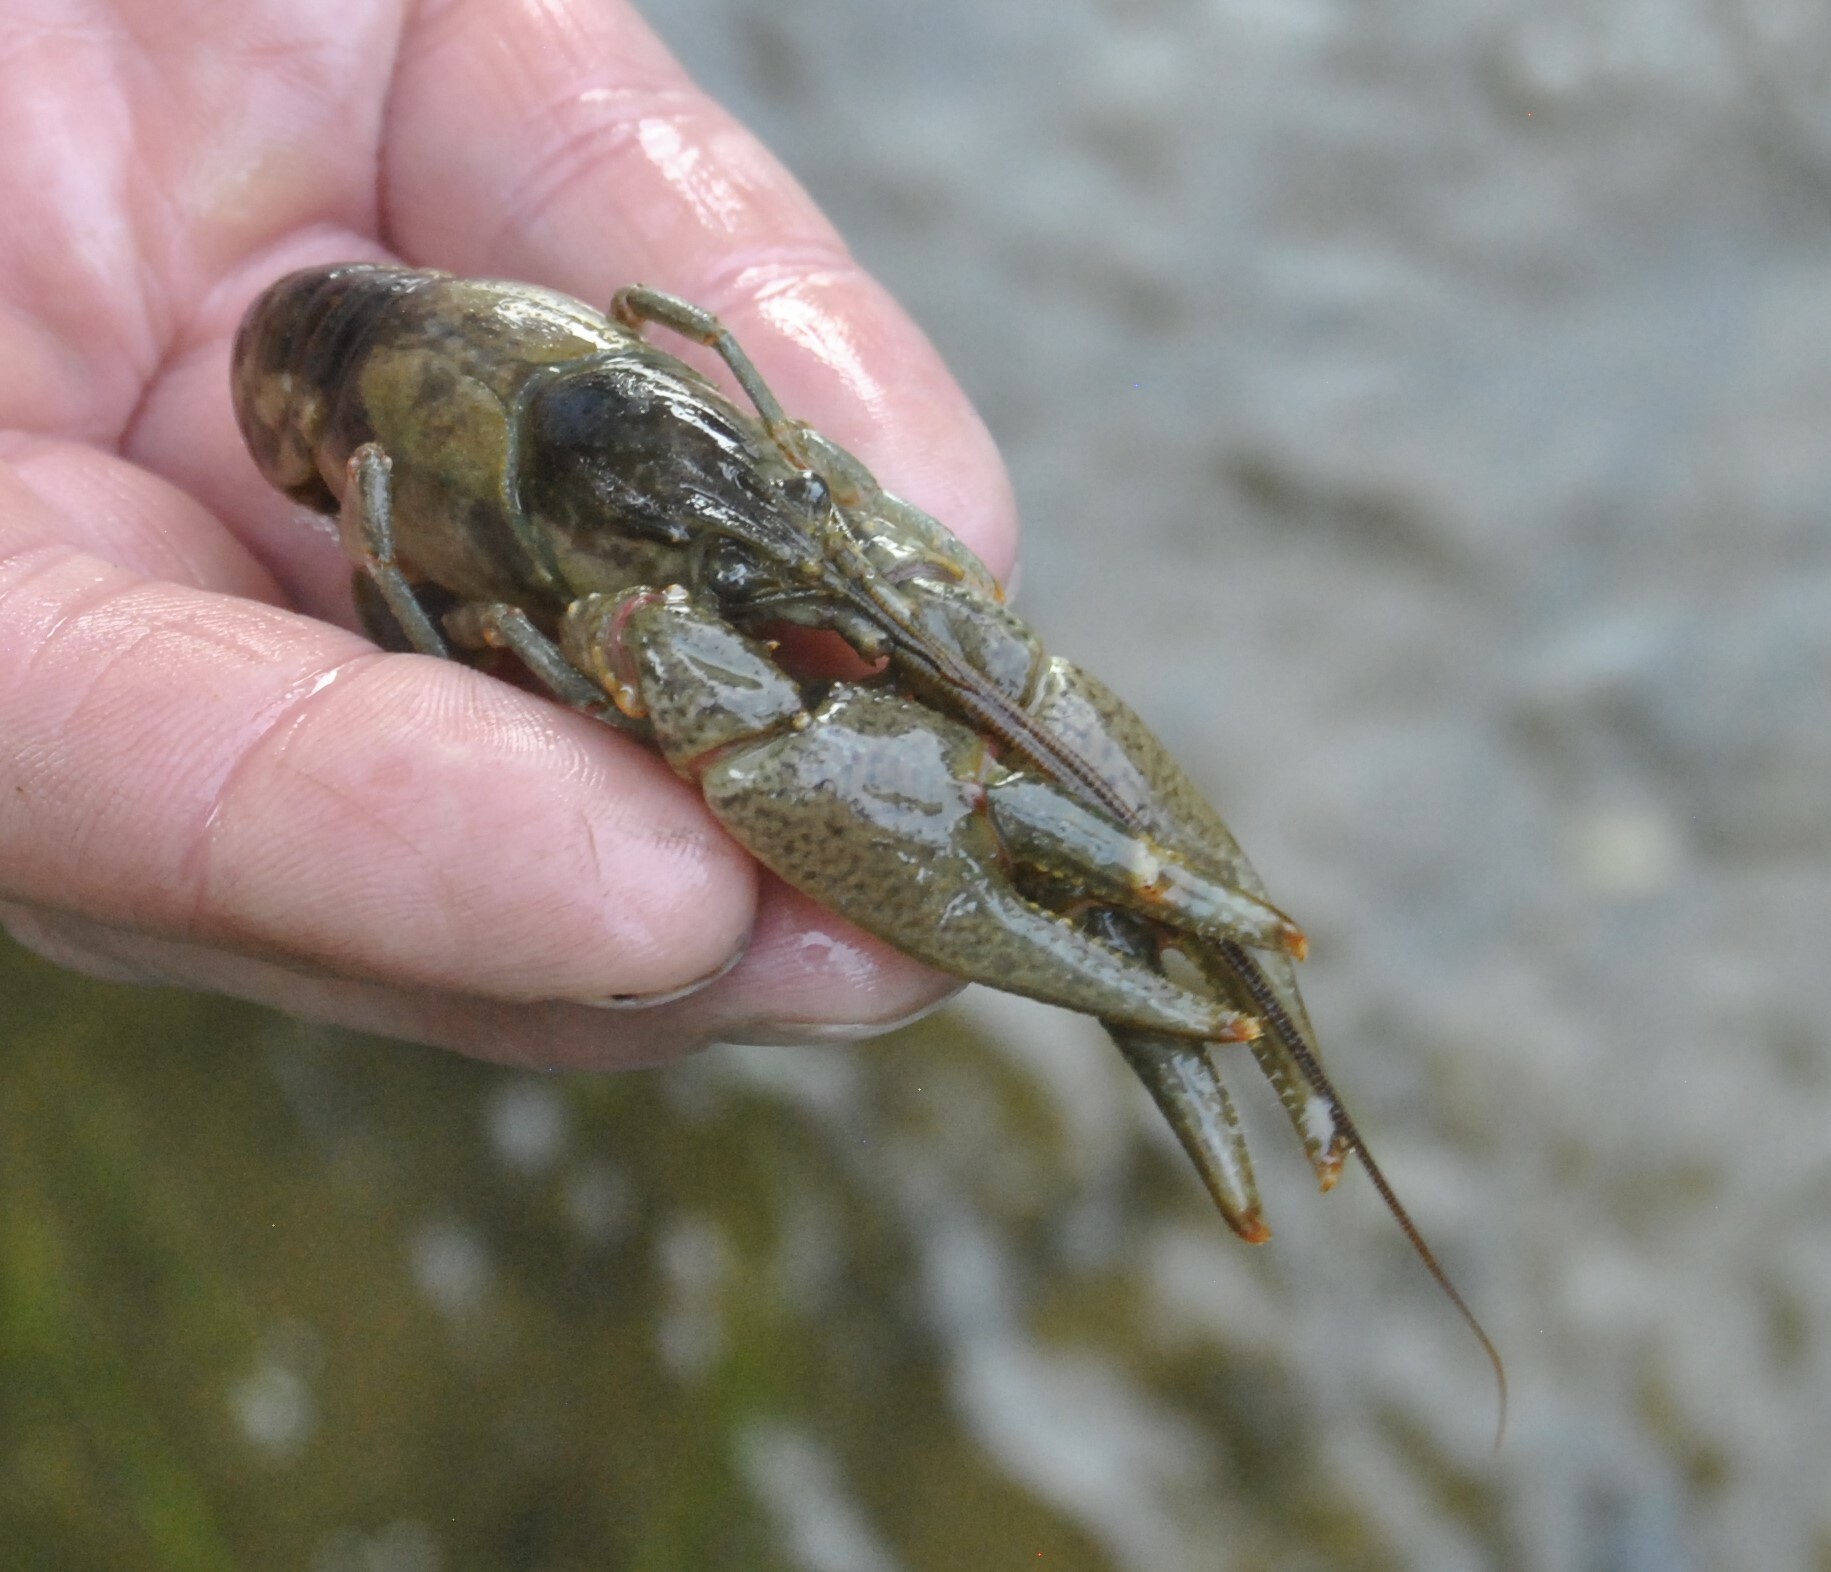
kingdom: Animalia
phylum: Arthropoda
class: Malacostraca
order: Decapoda
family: Cambaridae
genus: Faxonius
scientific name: Faxonius propinquus
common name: Northern clearwater crayfish
